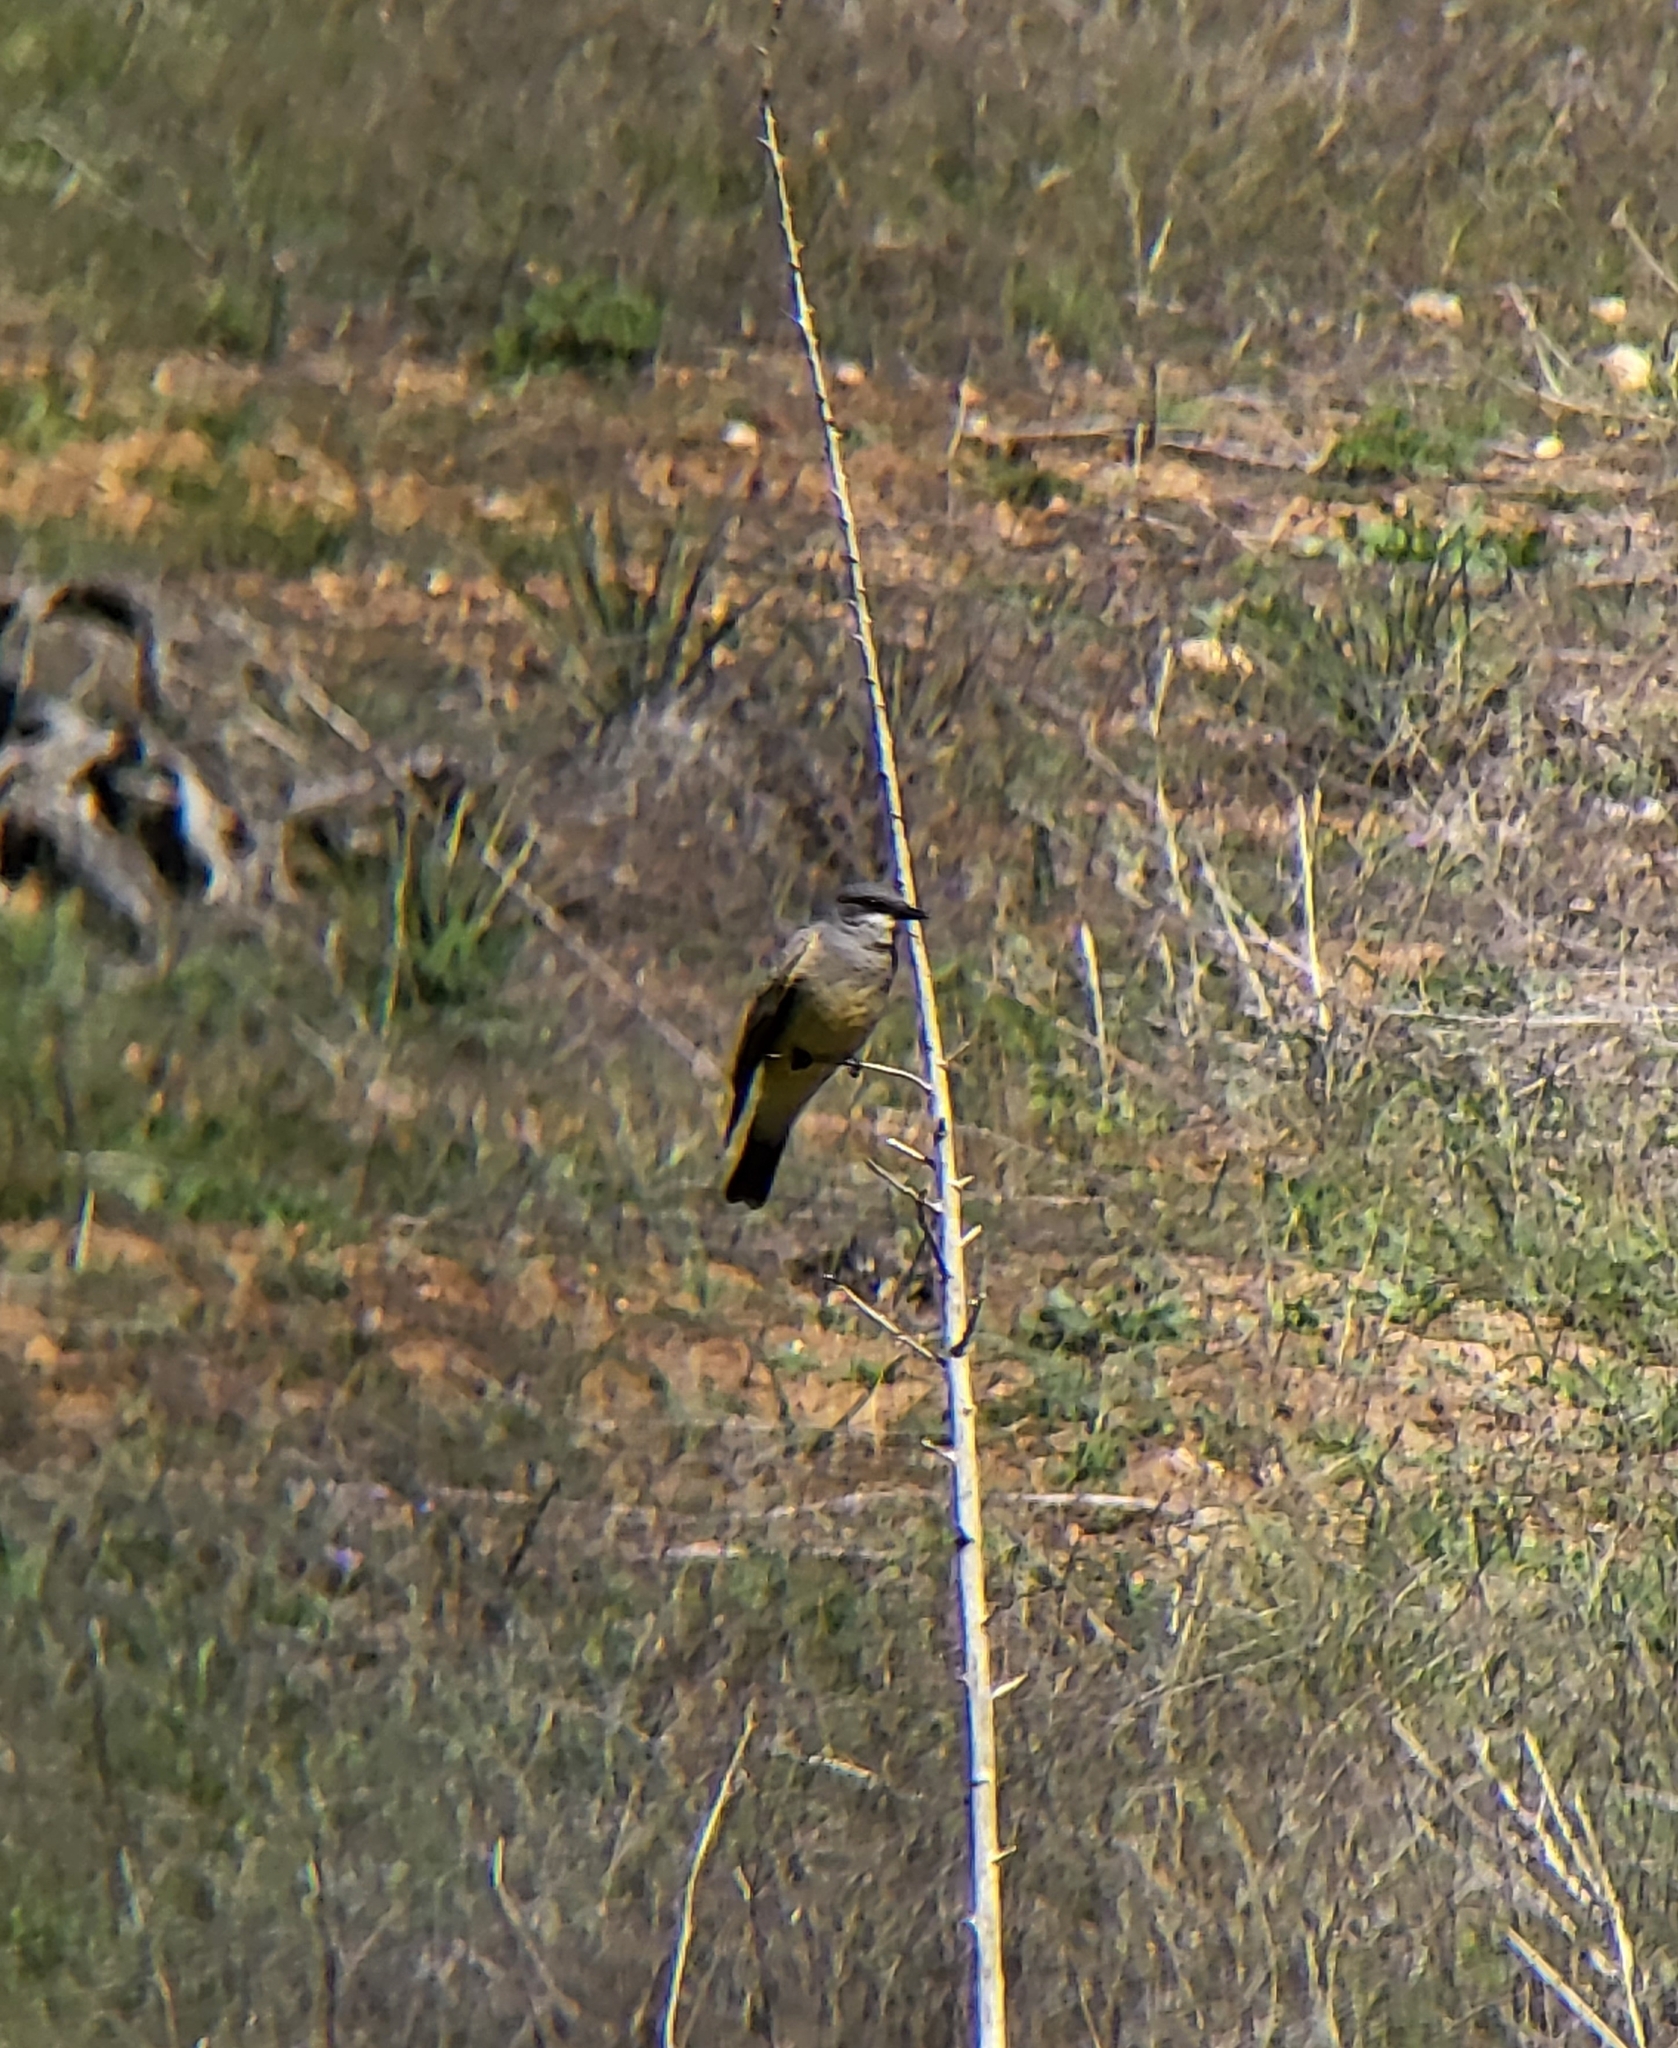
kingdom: Animalia
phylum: Chordata
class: Aves
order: Passeriformes
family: Tyrannidae
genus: Tyrannus
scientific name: Tyrannus vociferans
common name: Cassin's kingbird
